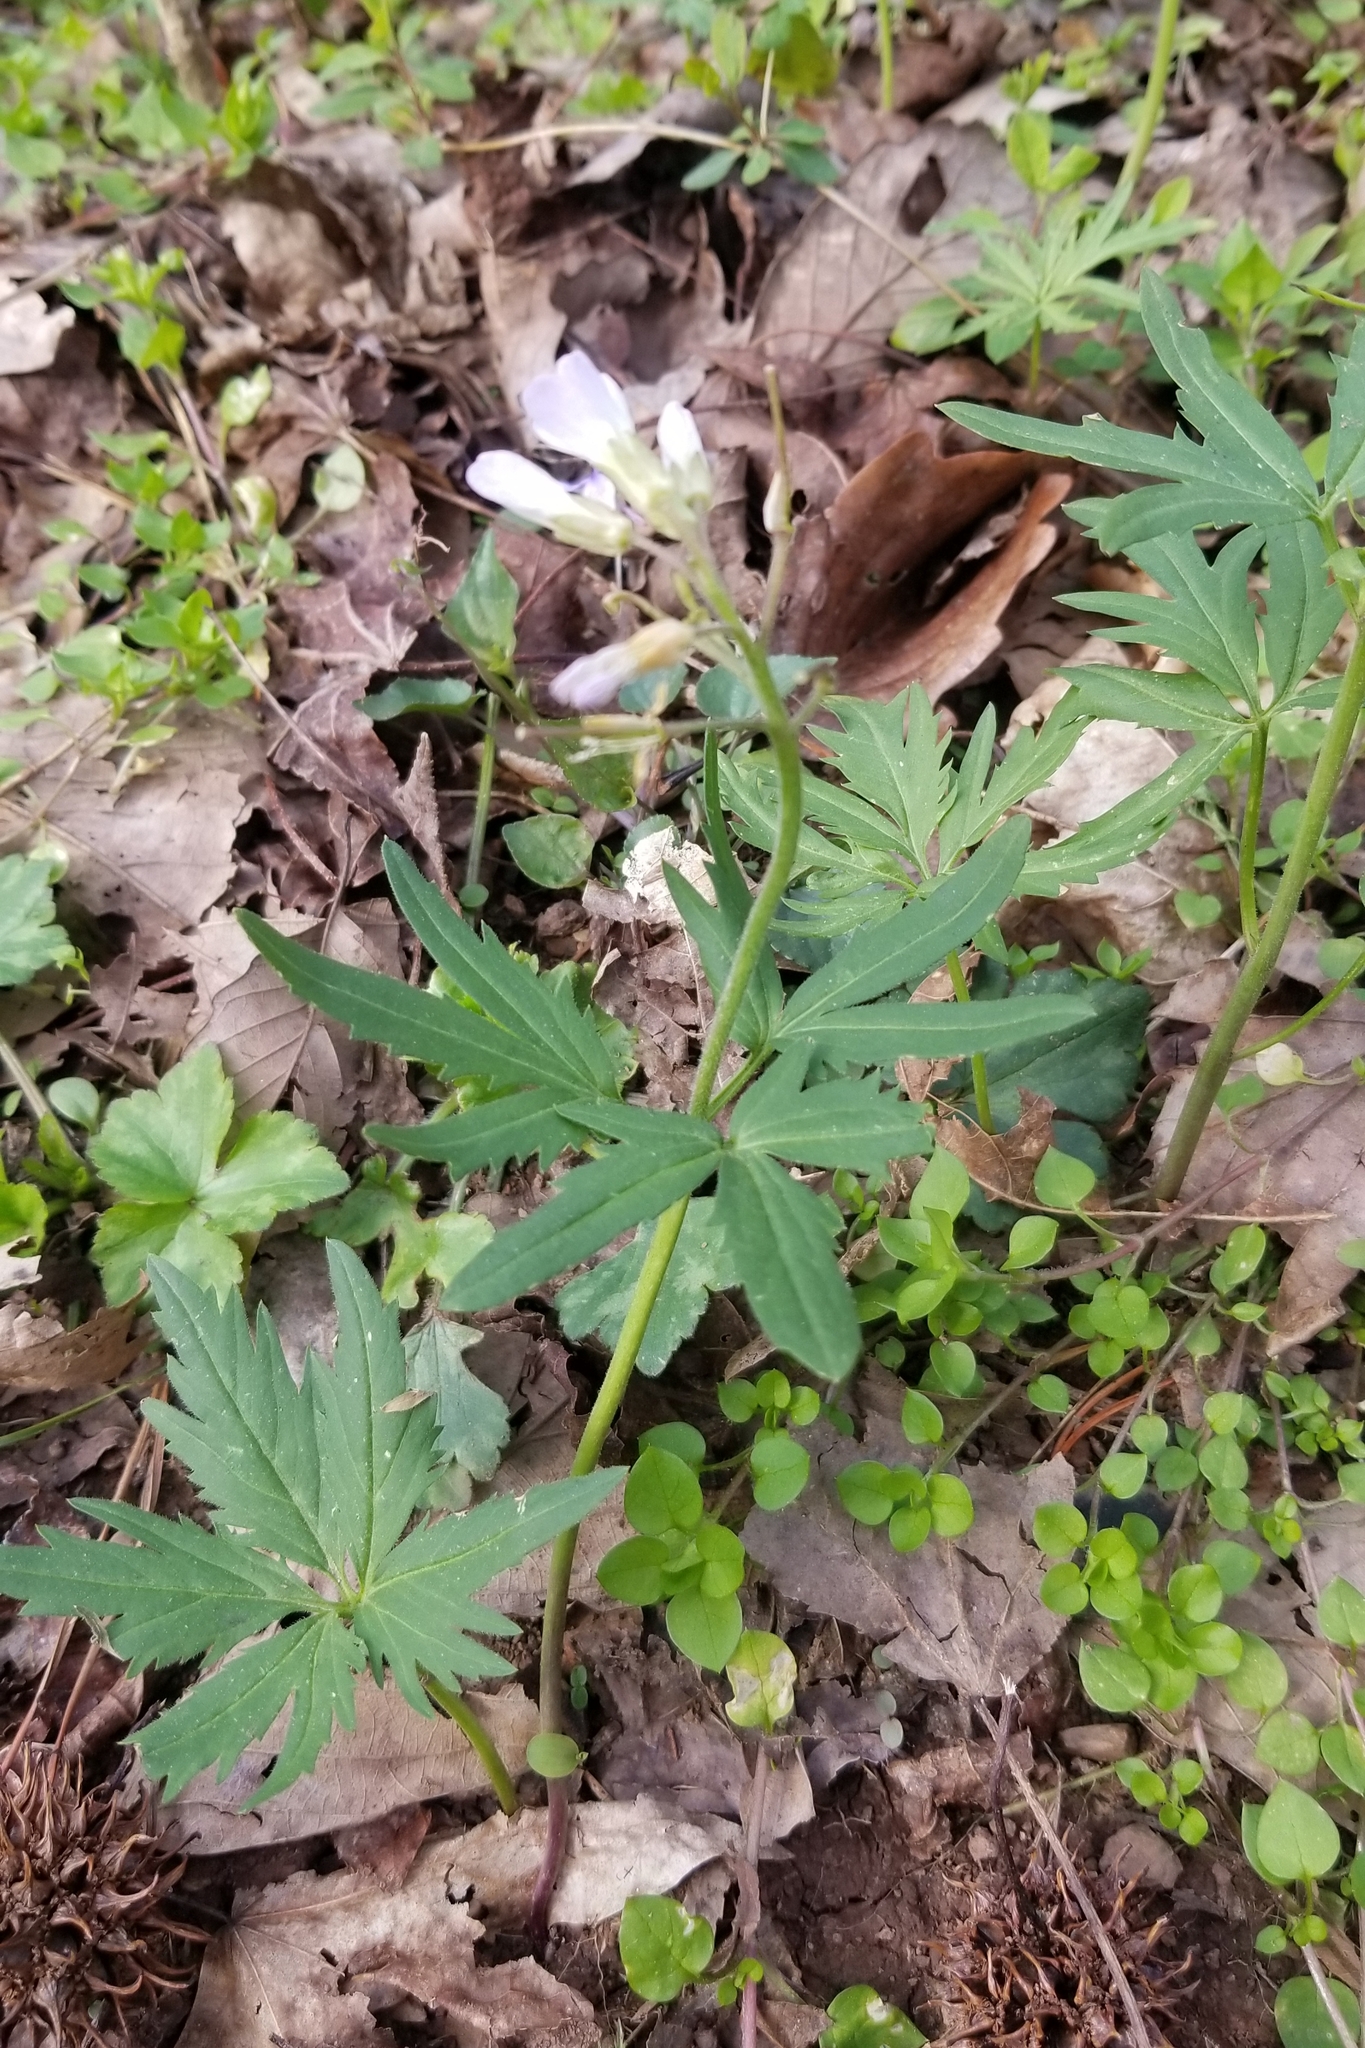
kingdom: Plantae
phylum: Tracheophyta
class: Magnoliopsida
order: Brassicales
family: Brassicaceae
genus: Cardamine
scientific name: Cardamine concatenata
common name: Cut-leaf toothcup
